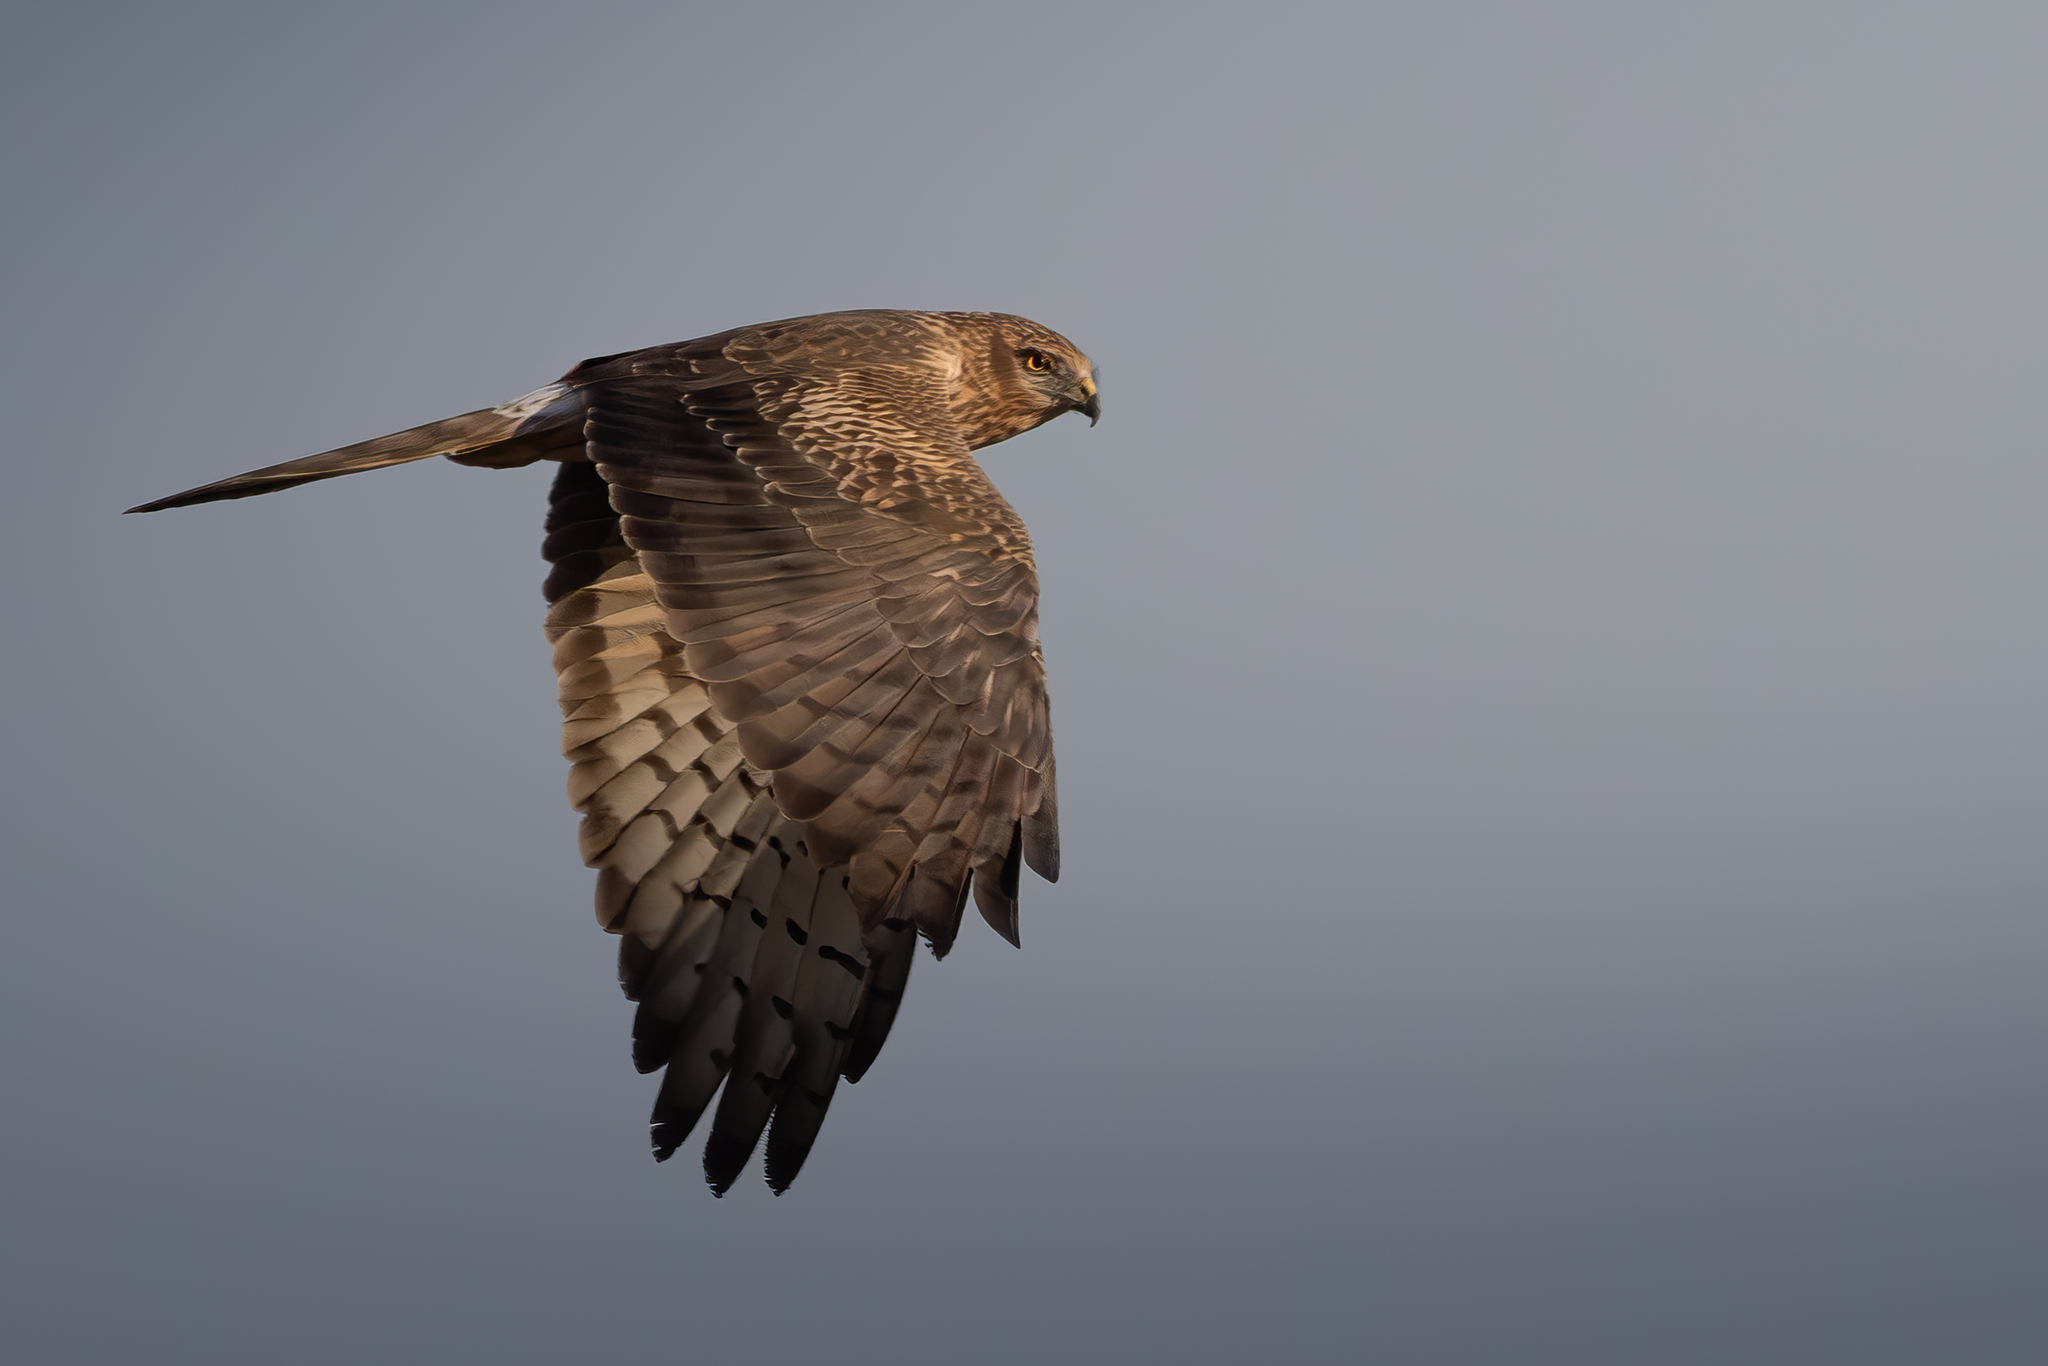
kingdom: Animalia
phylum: Chordata
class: Aves
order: Accipitriformes
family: Accipitridae
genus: Circus
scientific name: Circus pygargus
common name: Montagu's harrier
